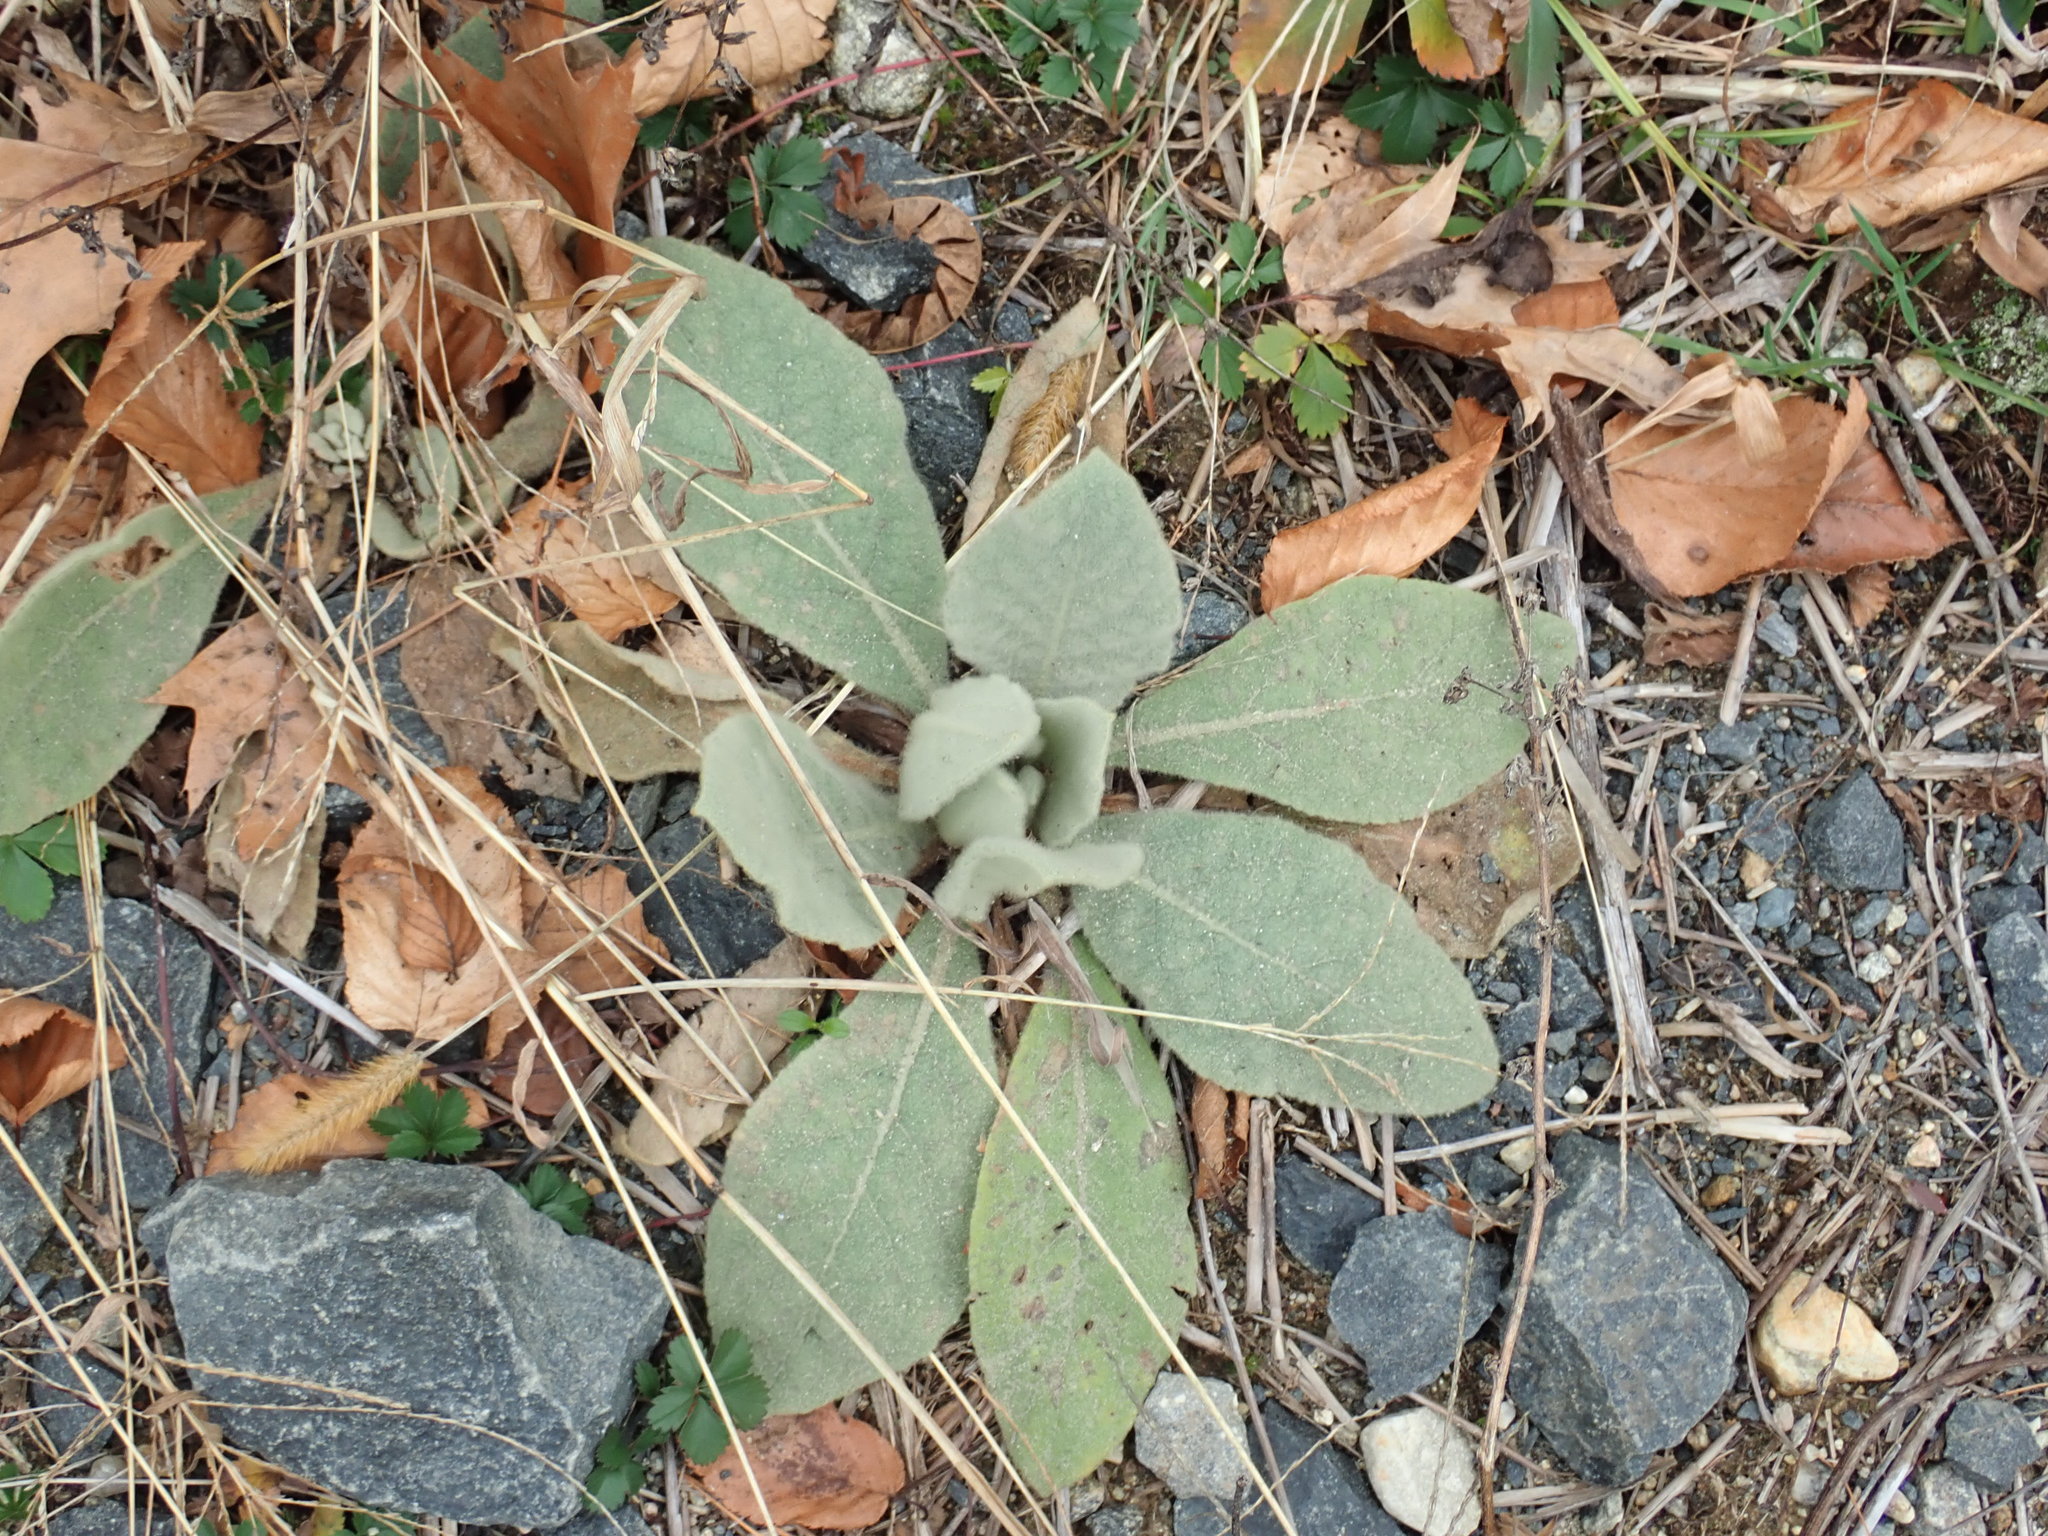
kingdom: Plantae
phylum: Tracheophyta
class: Magnoliopsida
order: Lamiales
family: Scrophulariaceae
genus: Verbascum
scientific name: Verbascum thapsus
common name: Common mullein
